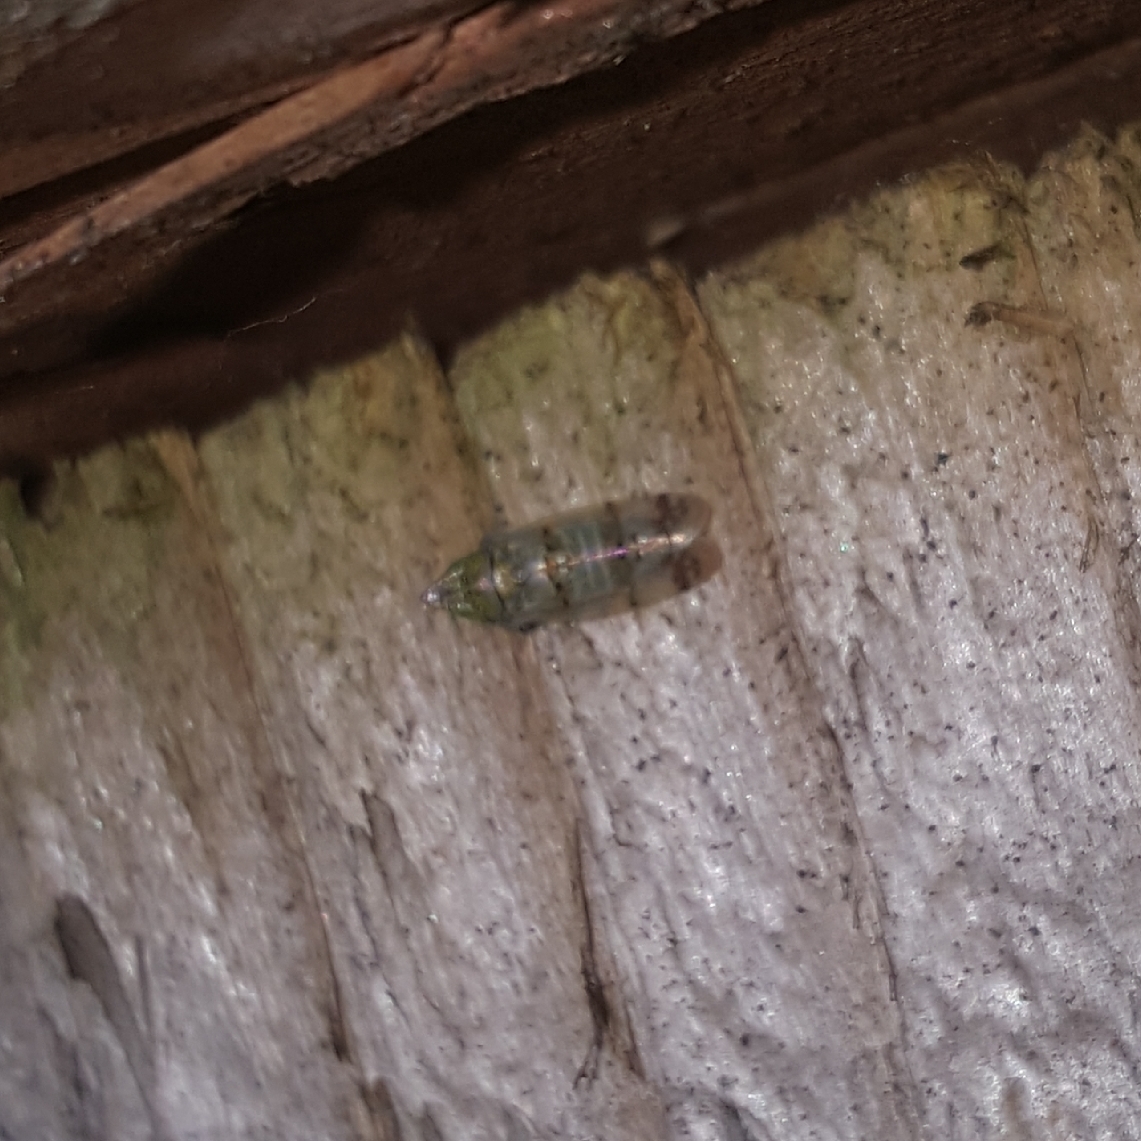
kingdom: Animalia
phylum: Arthropoda
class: Insecta
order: Hemiptera
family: Cicadellidae
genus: Japananus
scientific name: Japananus hyalinus
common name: The japanese maple leafhopper
